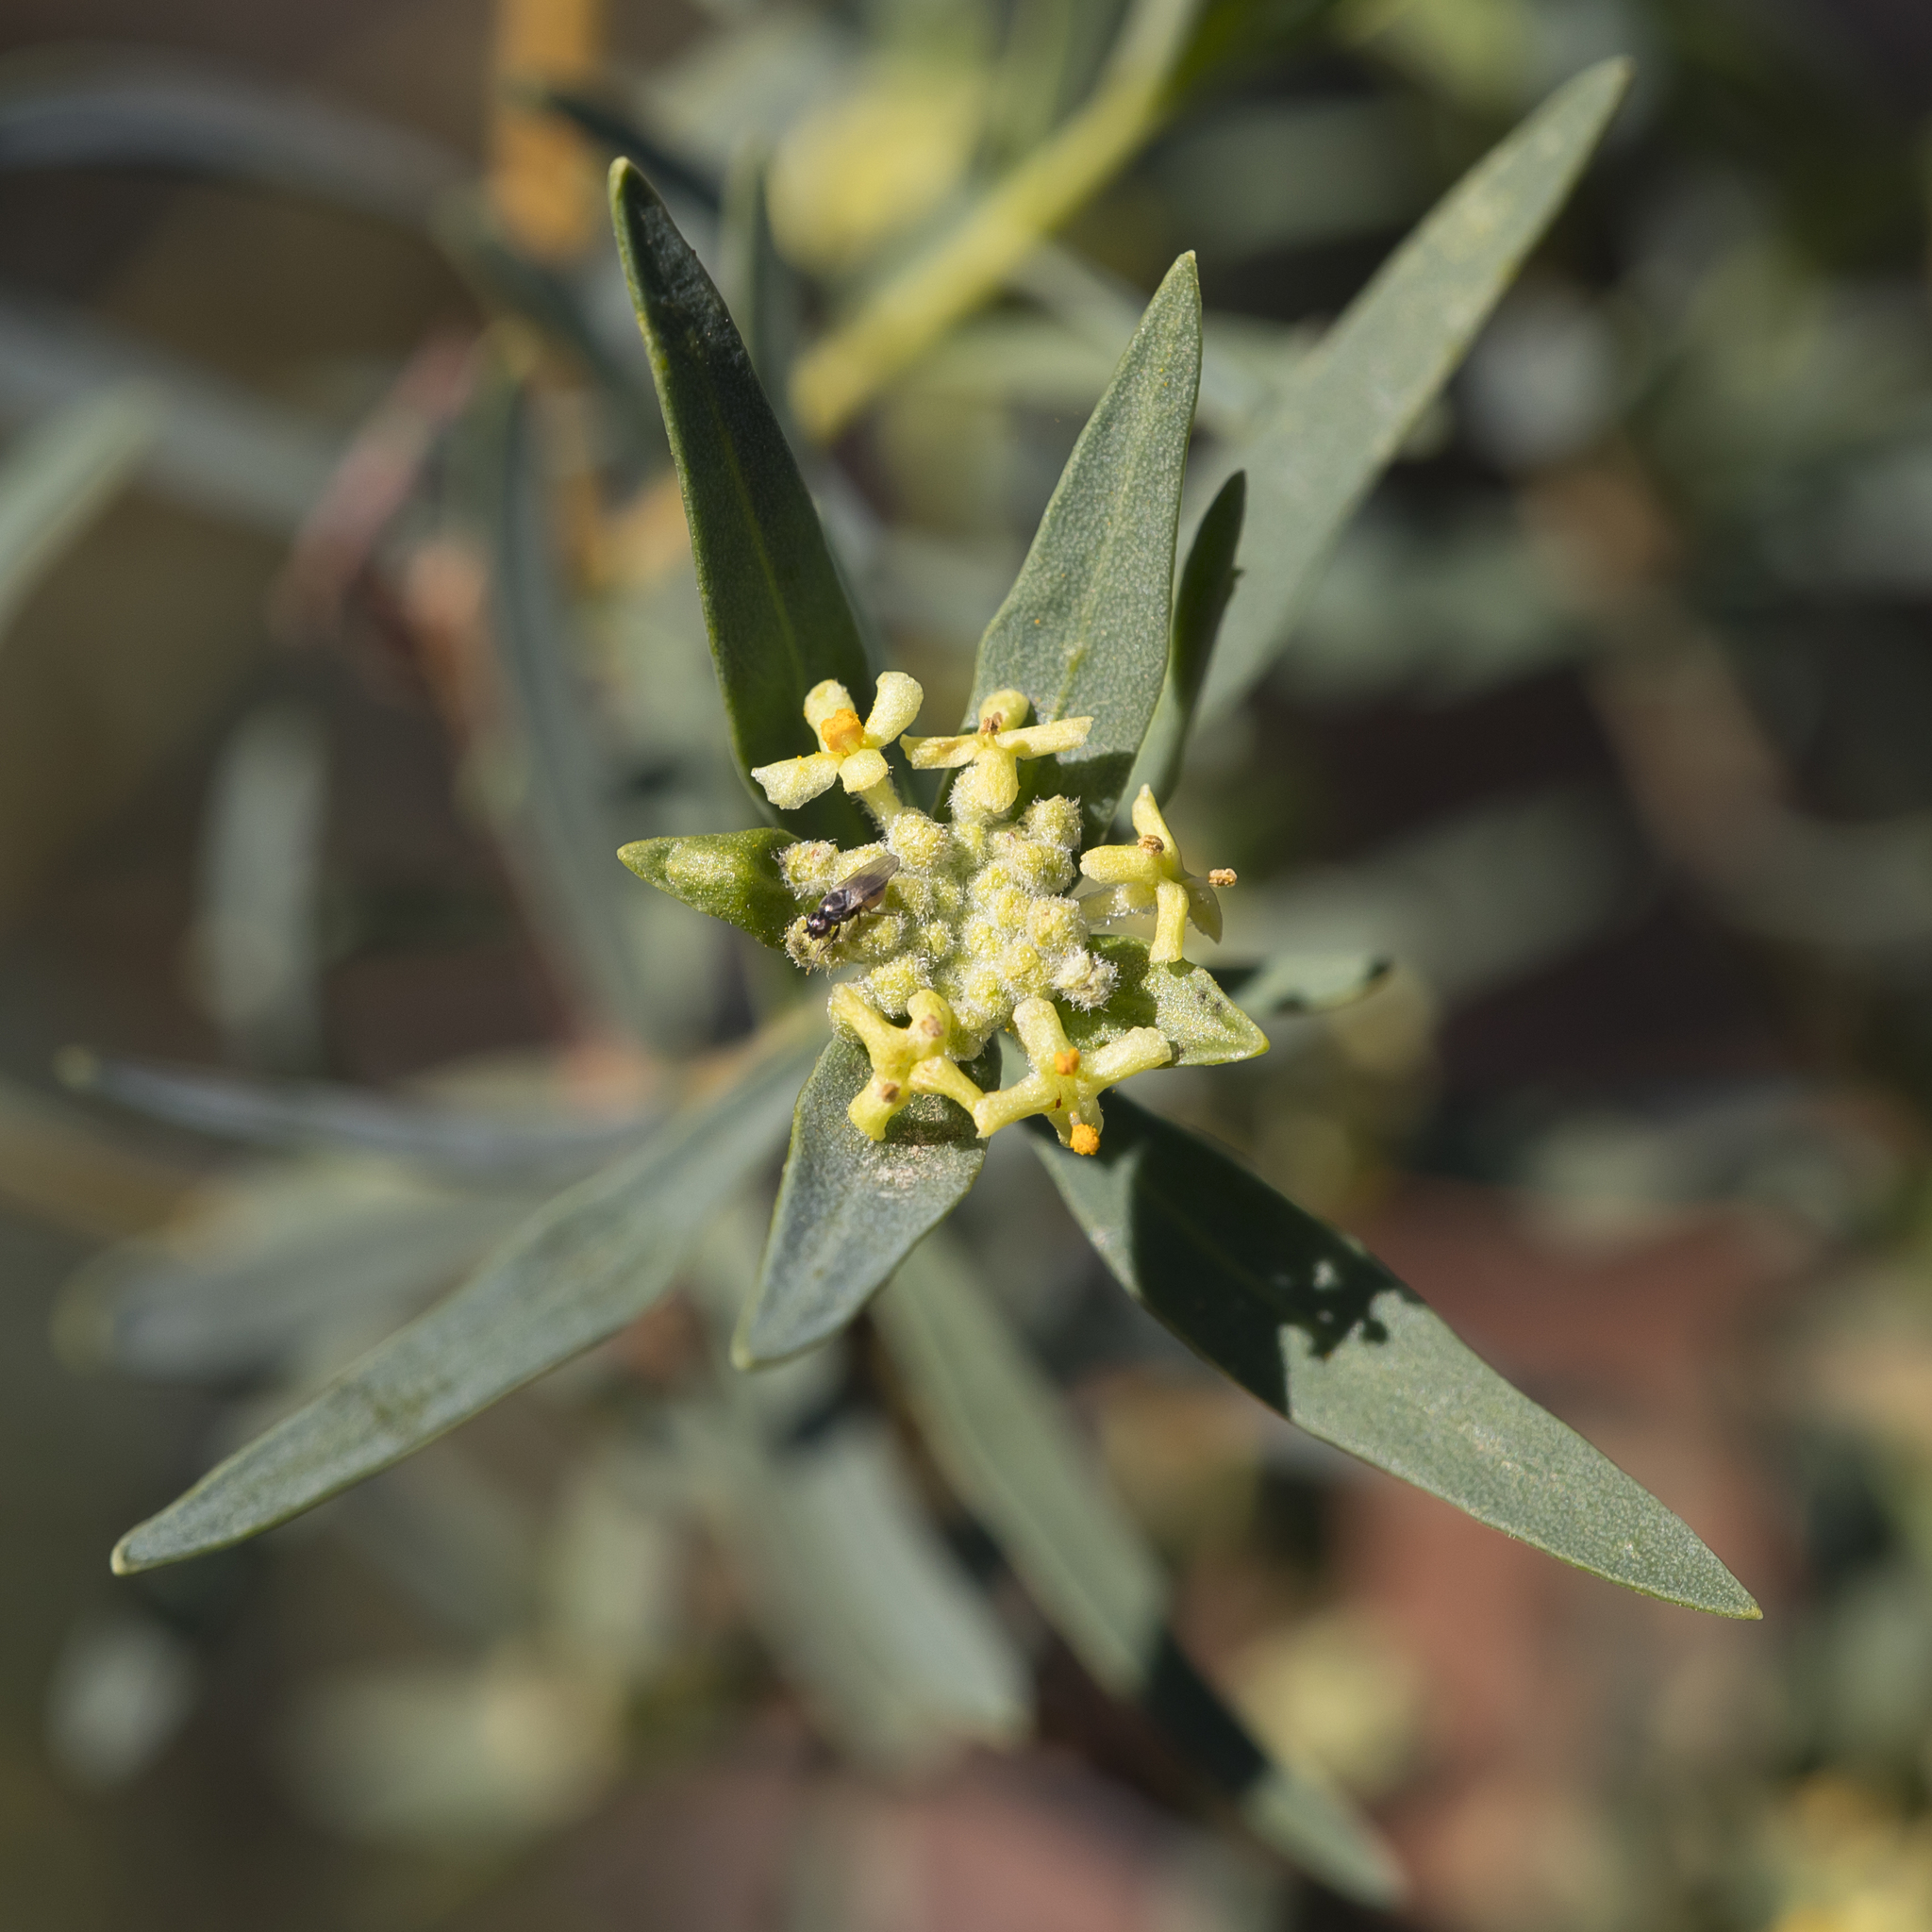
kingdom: Plantae
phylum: Tracheophyta
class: Magnoliopsida
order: Malvales
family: Thymelaeaceae
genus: Pimelea
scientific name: Pimelea microcephala
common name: Mallee riceflower
